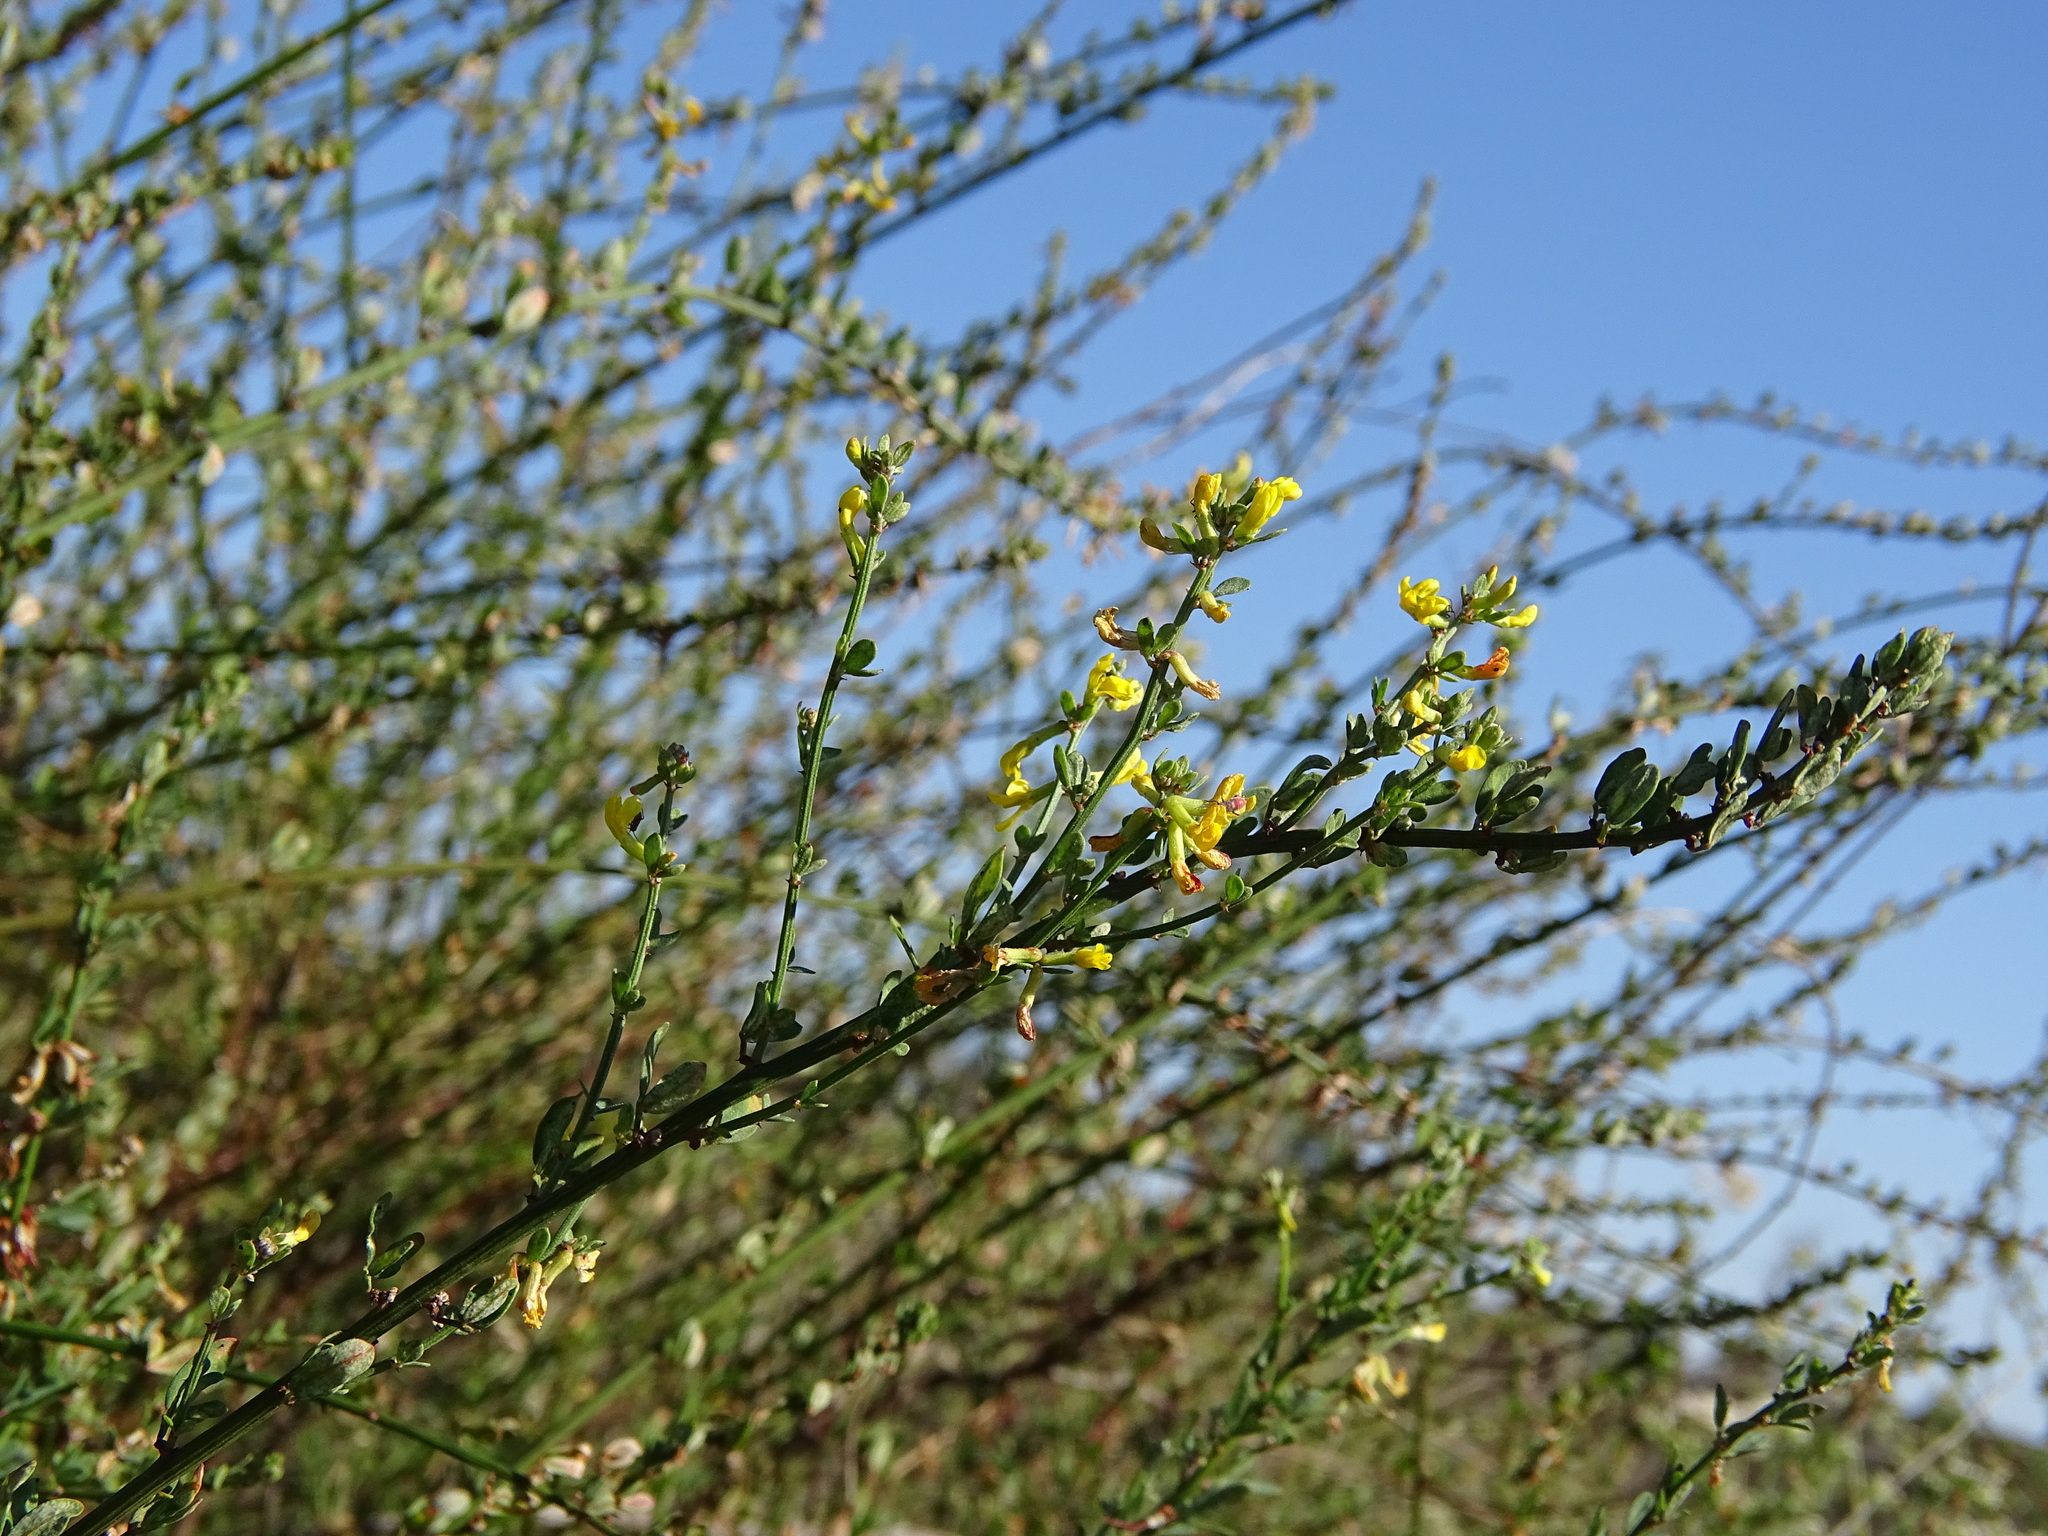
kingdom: Plantae
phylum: Tracheophyta
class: Magnoliopsida
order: Fabales
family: Fabaceae
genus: Acmispon
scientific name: Acmispon glaber
